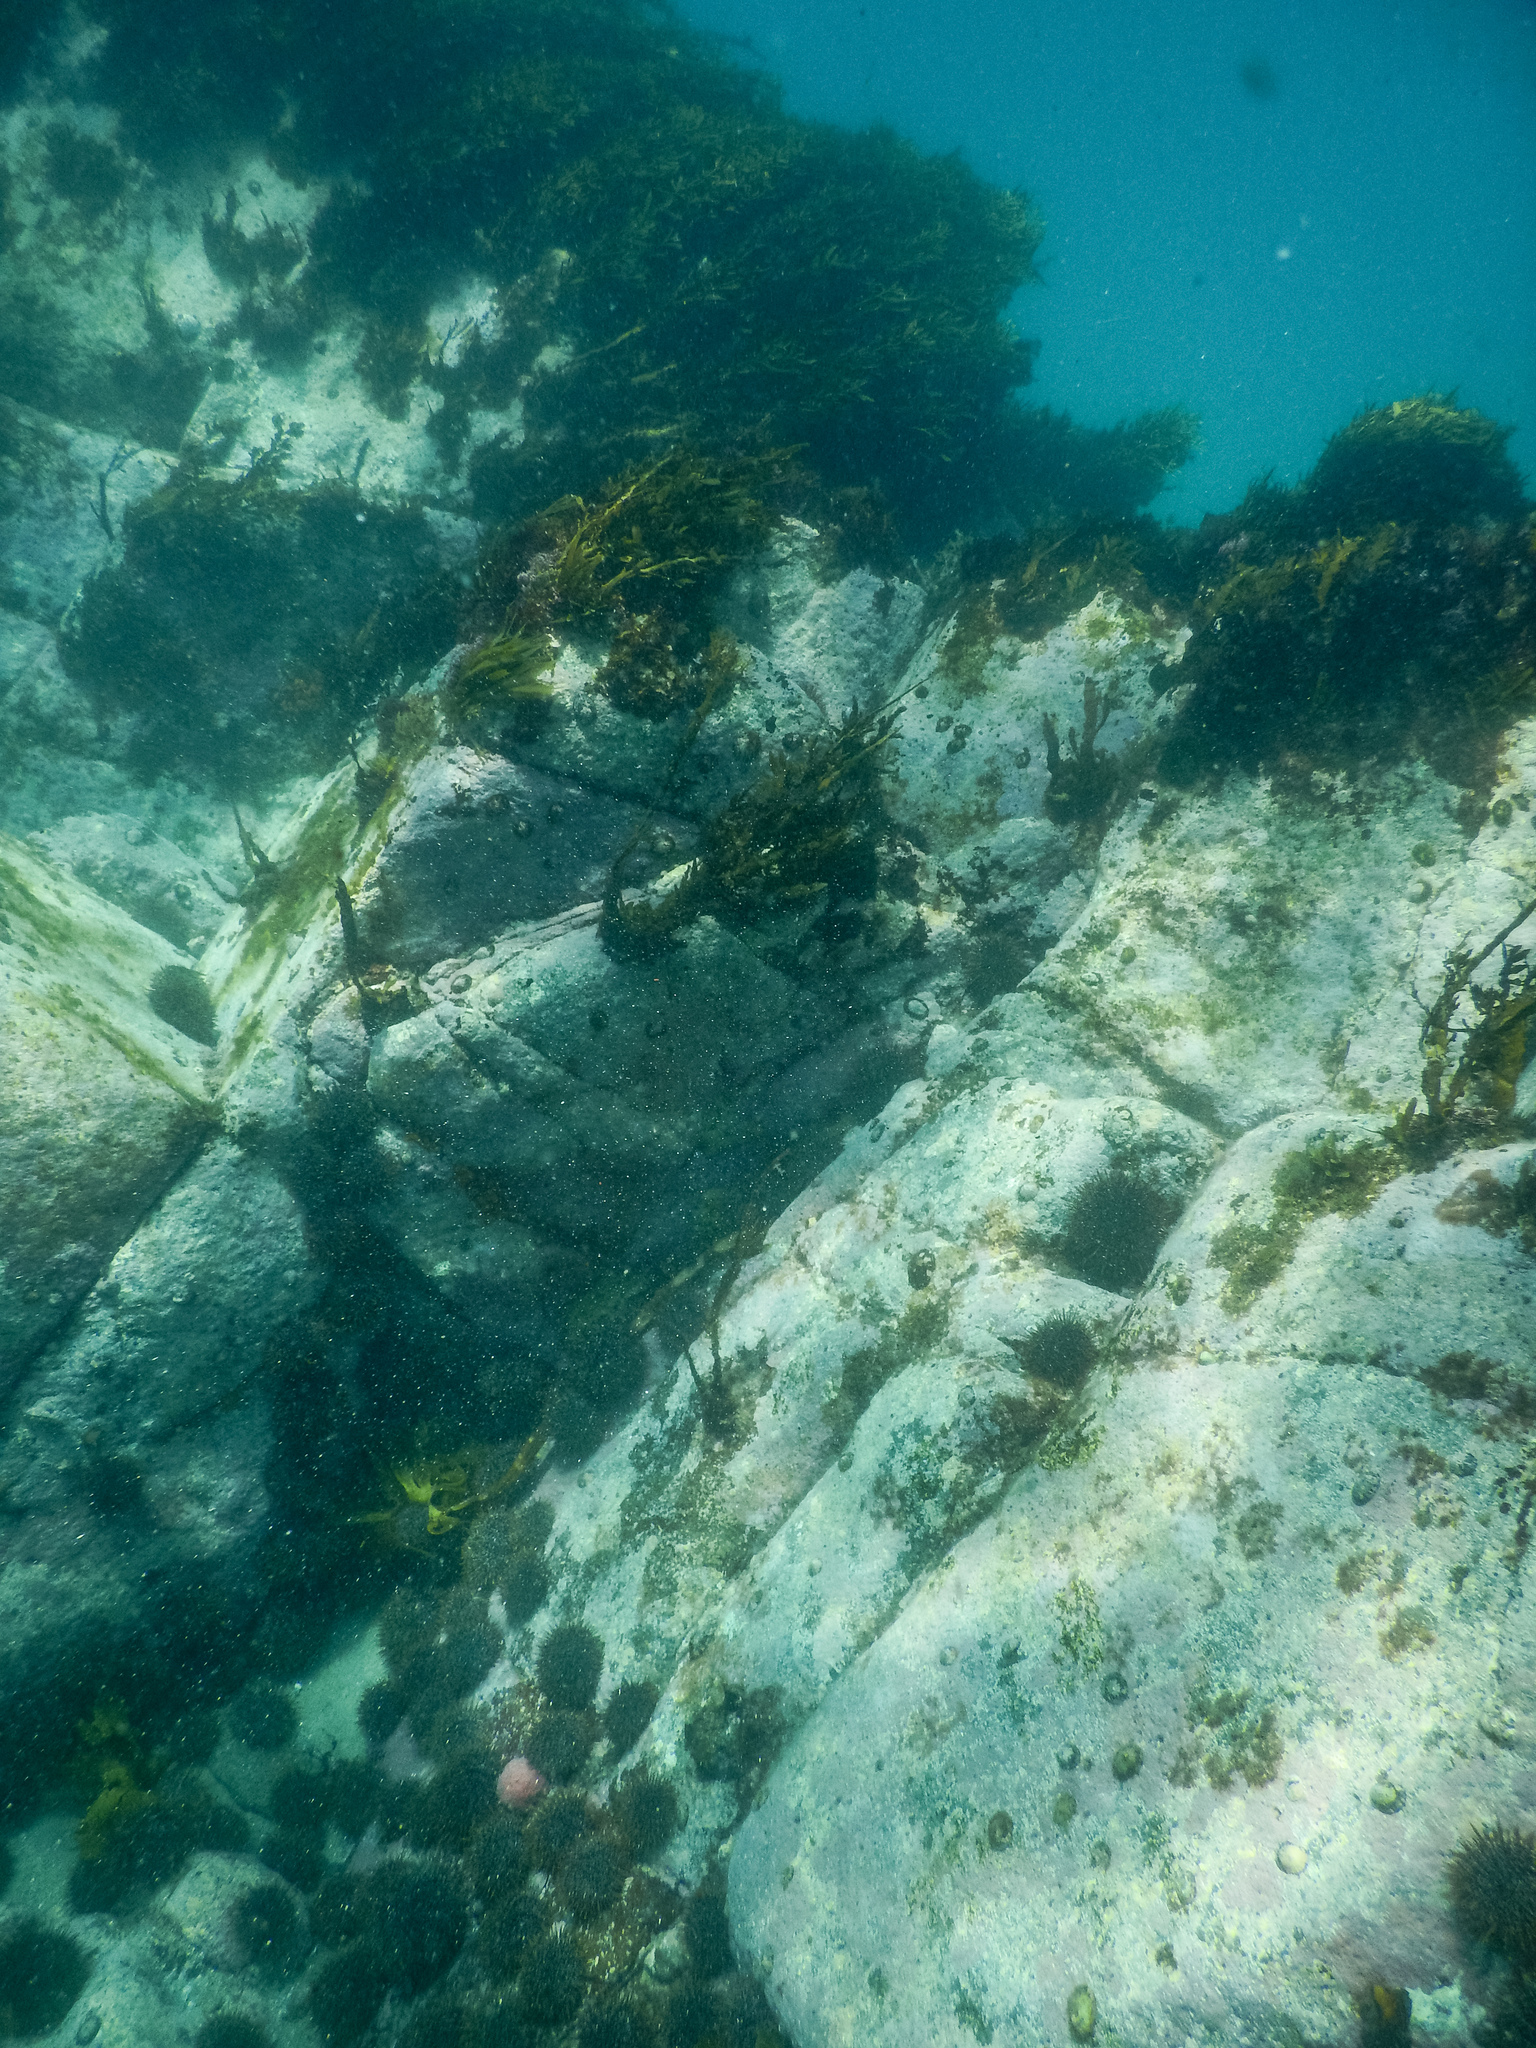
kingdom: Animalia
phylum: Echinodermata
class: Echinoidea
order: Camarodonta
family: Echinometridae
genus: Evechinus
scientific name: Evechinus chloroticus
